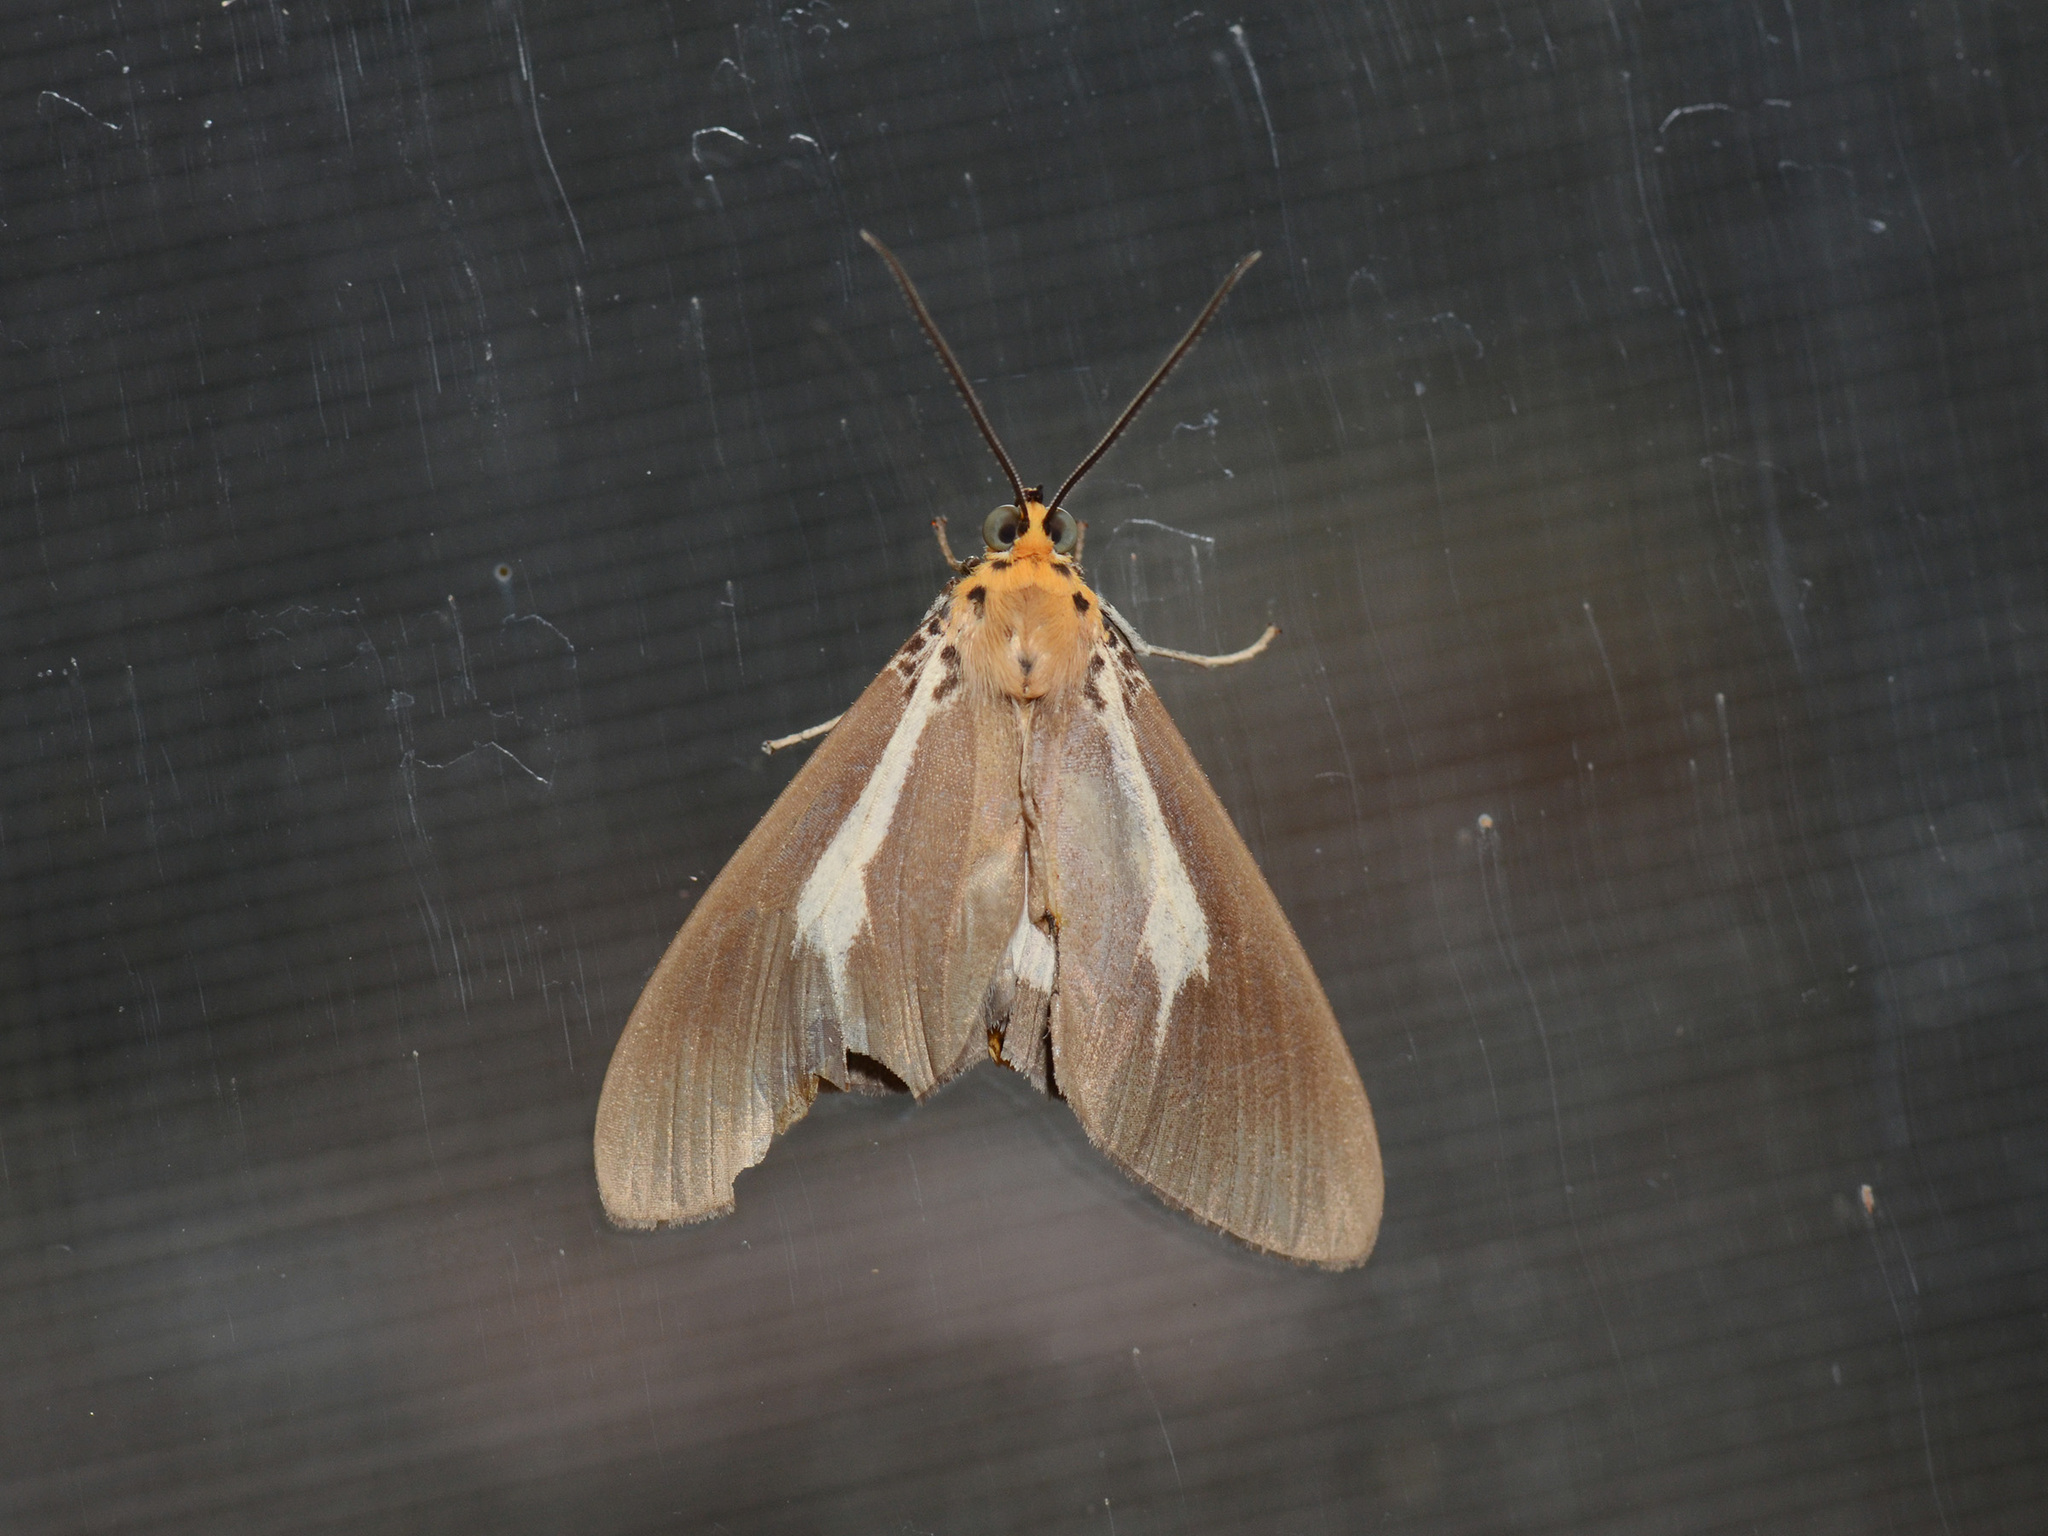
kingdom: Animalia
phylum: Arthropoda
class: Insecta
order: Lepidoptera
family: Erebidae
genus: Asota
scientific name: Asota heliconia
